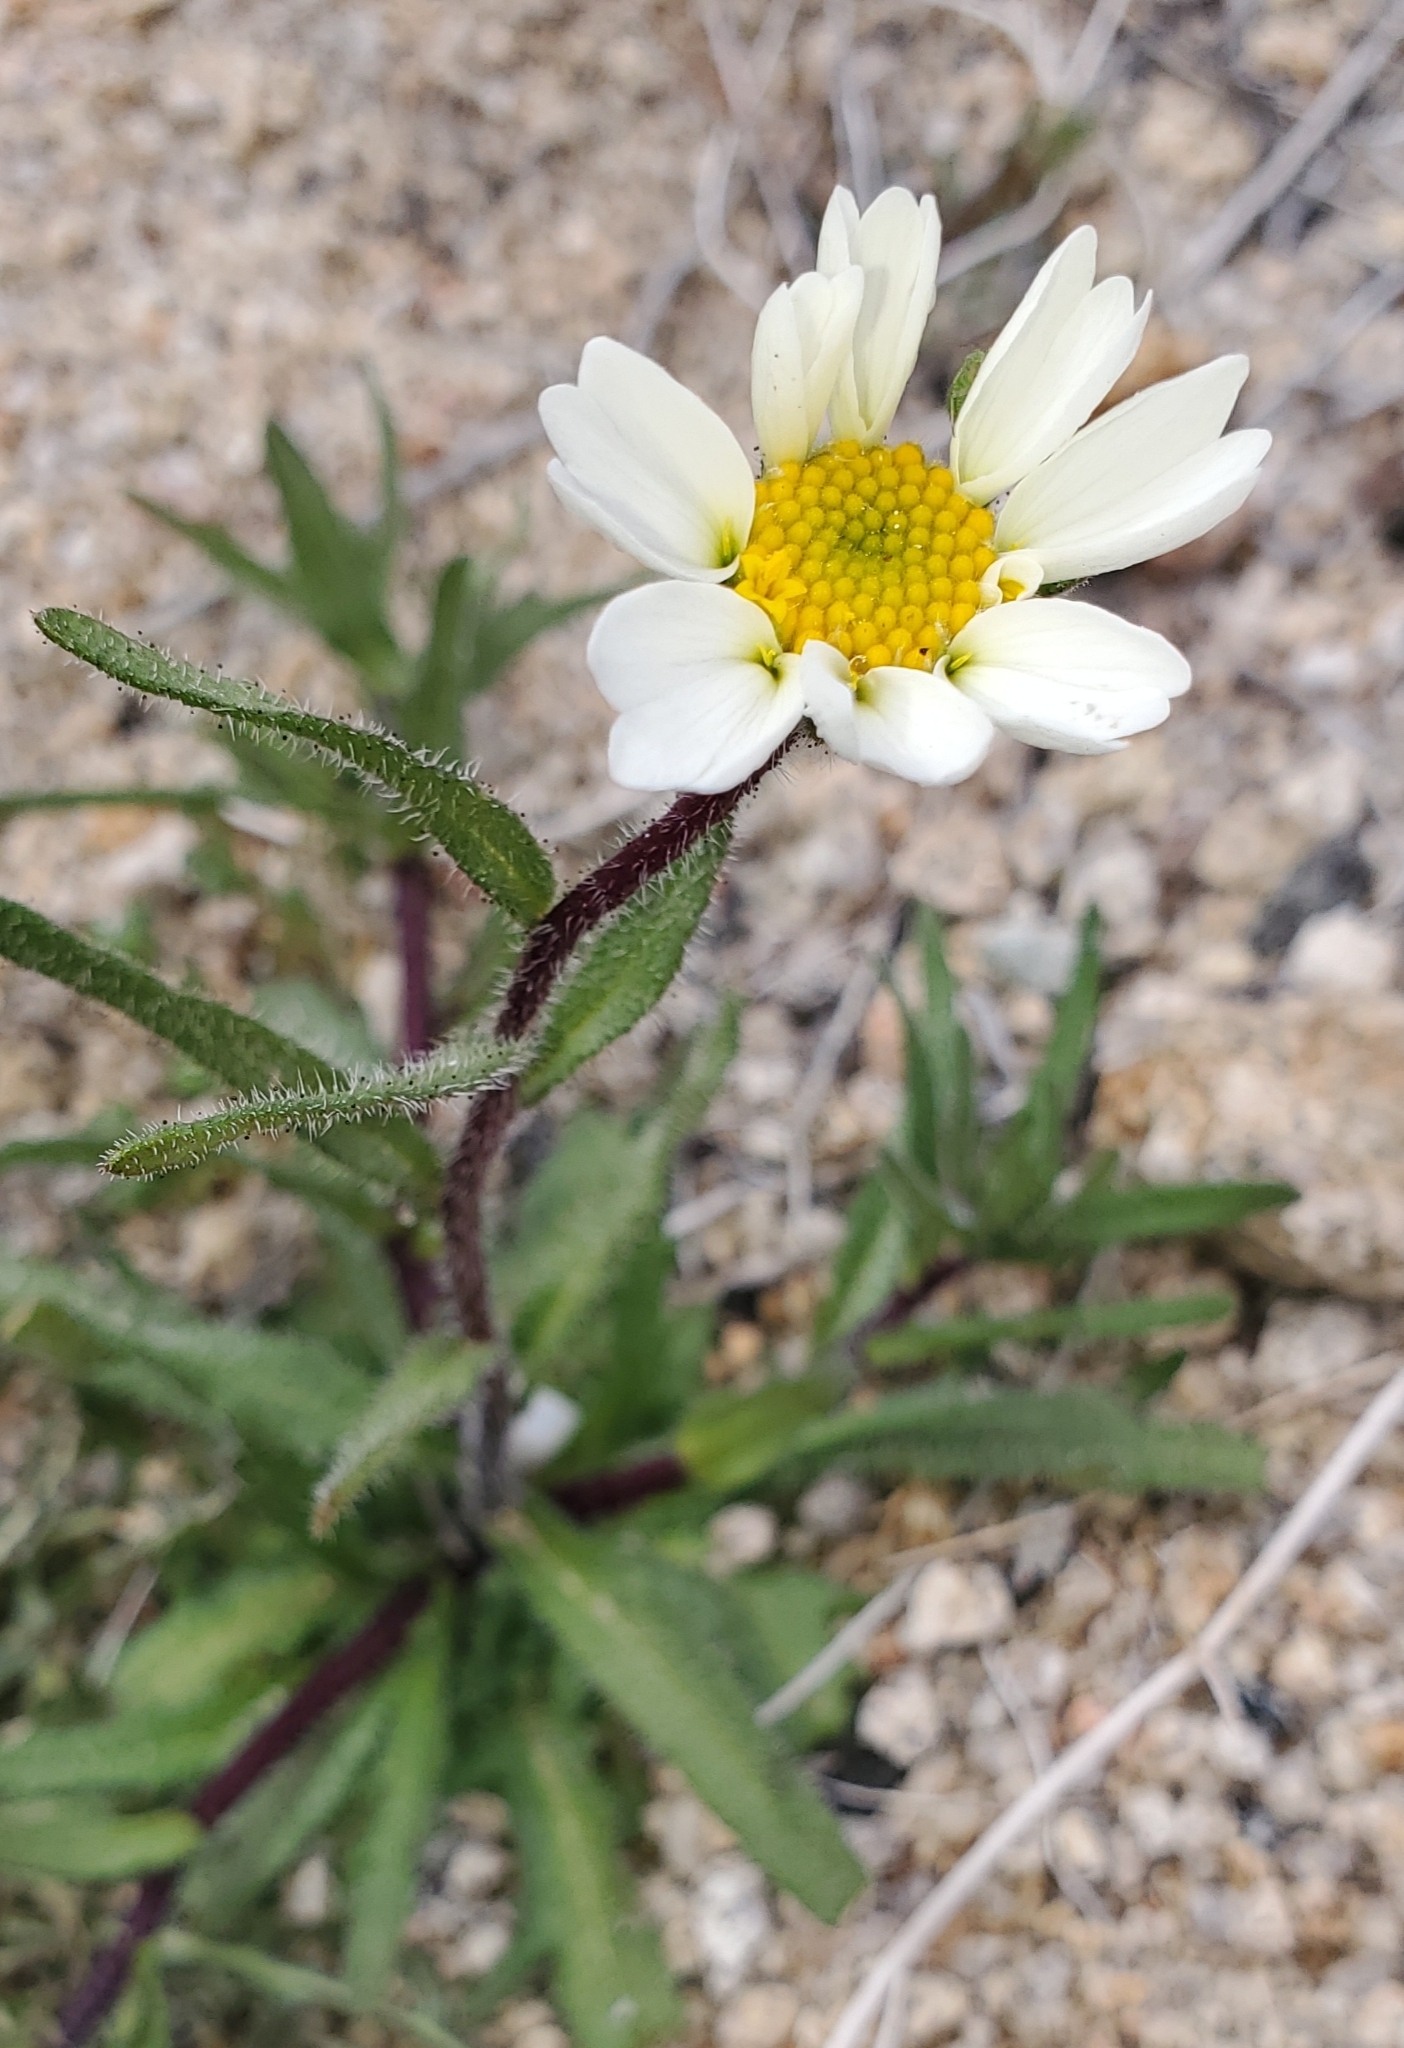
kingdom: Plantae
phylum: Tracheophyta
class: Magnoliopsida
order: Asterales
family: Asteraceae
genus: Layia
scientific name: Layia glandulosa
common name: White layia
